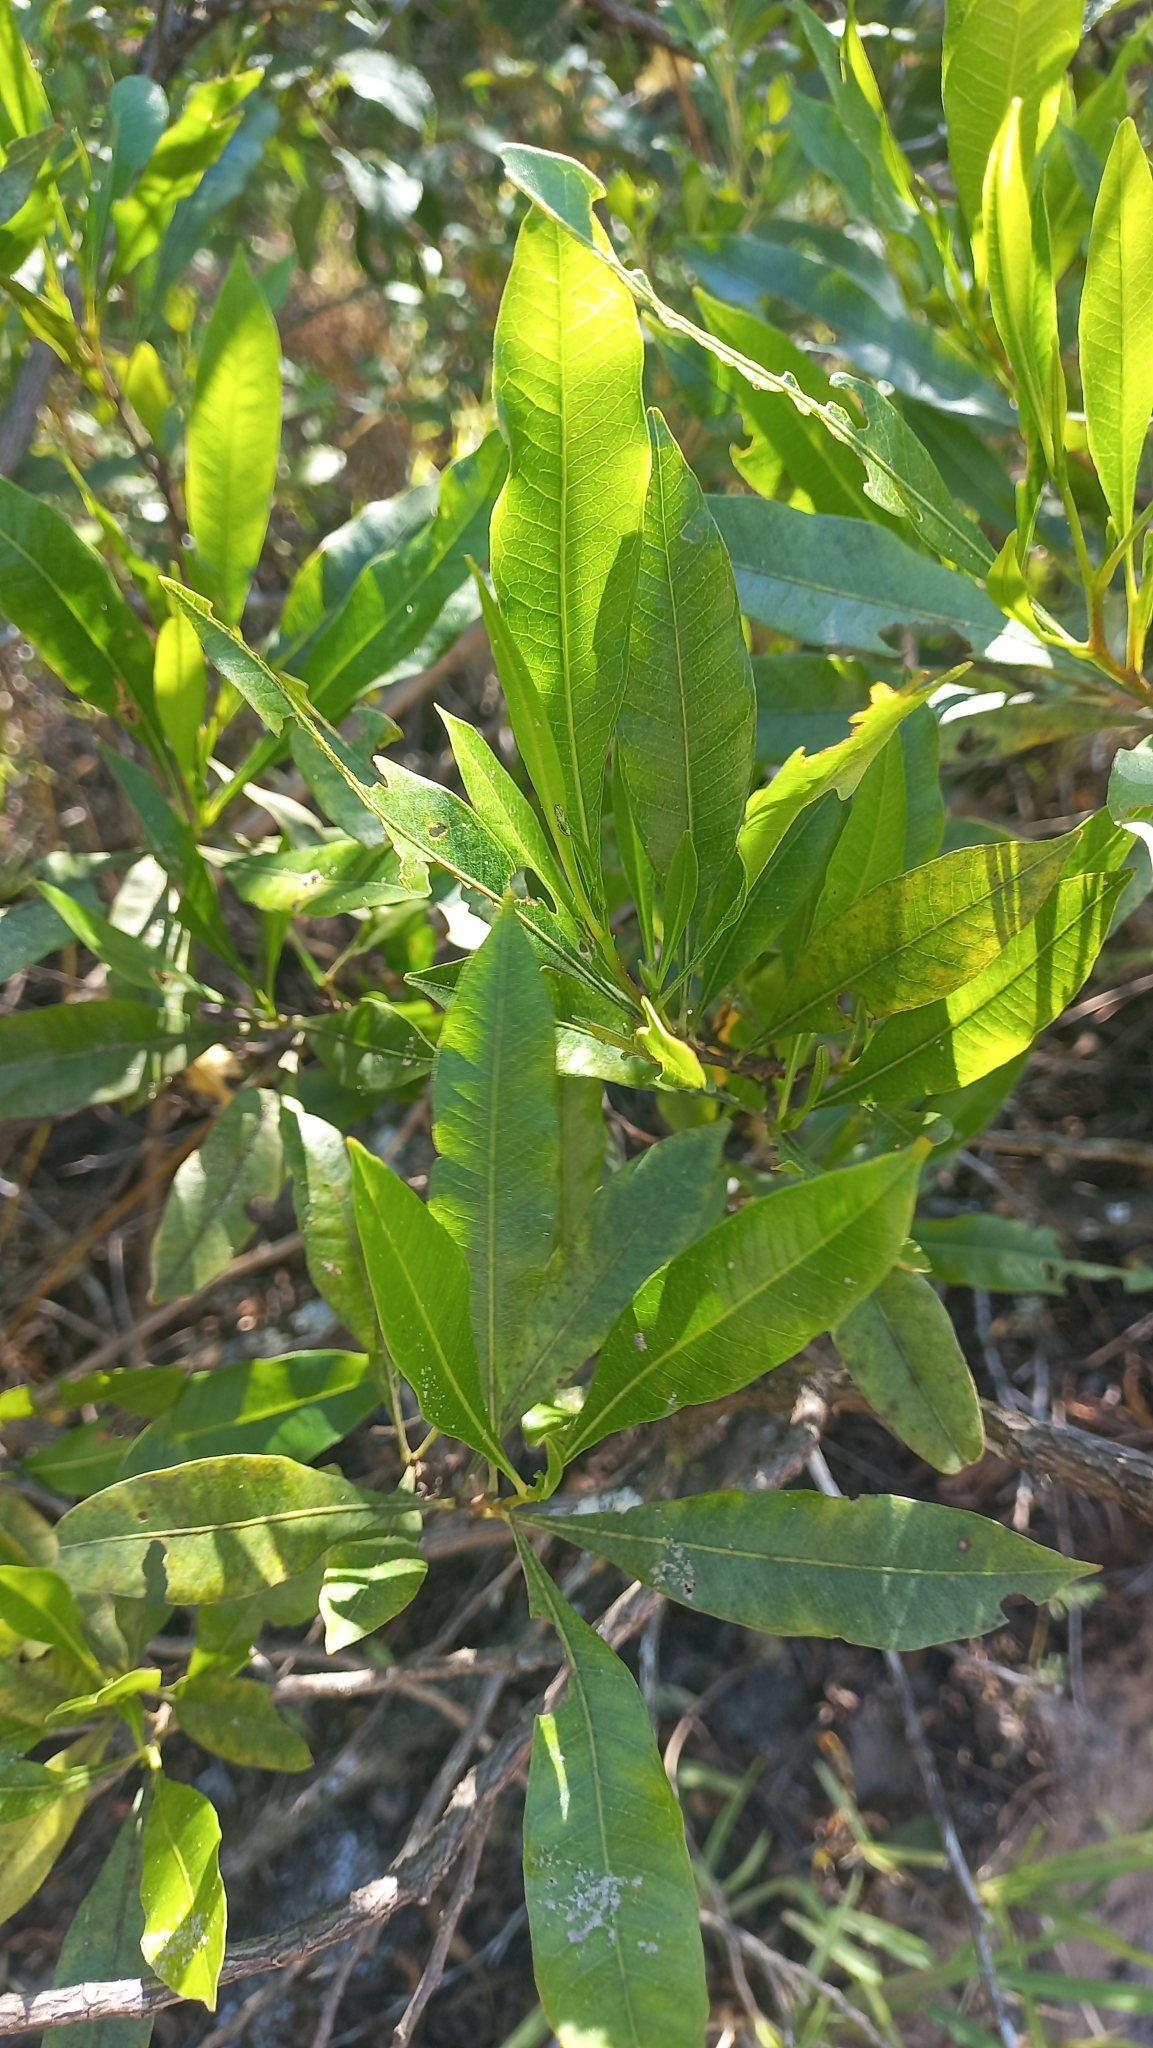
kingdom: Plantae
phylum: Tracheophyta
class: Magnoliopsida
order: Sapindales
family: Sapindaceae
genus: Dodonaea
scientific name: Dodonaea viscosa
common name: Hopbush
